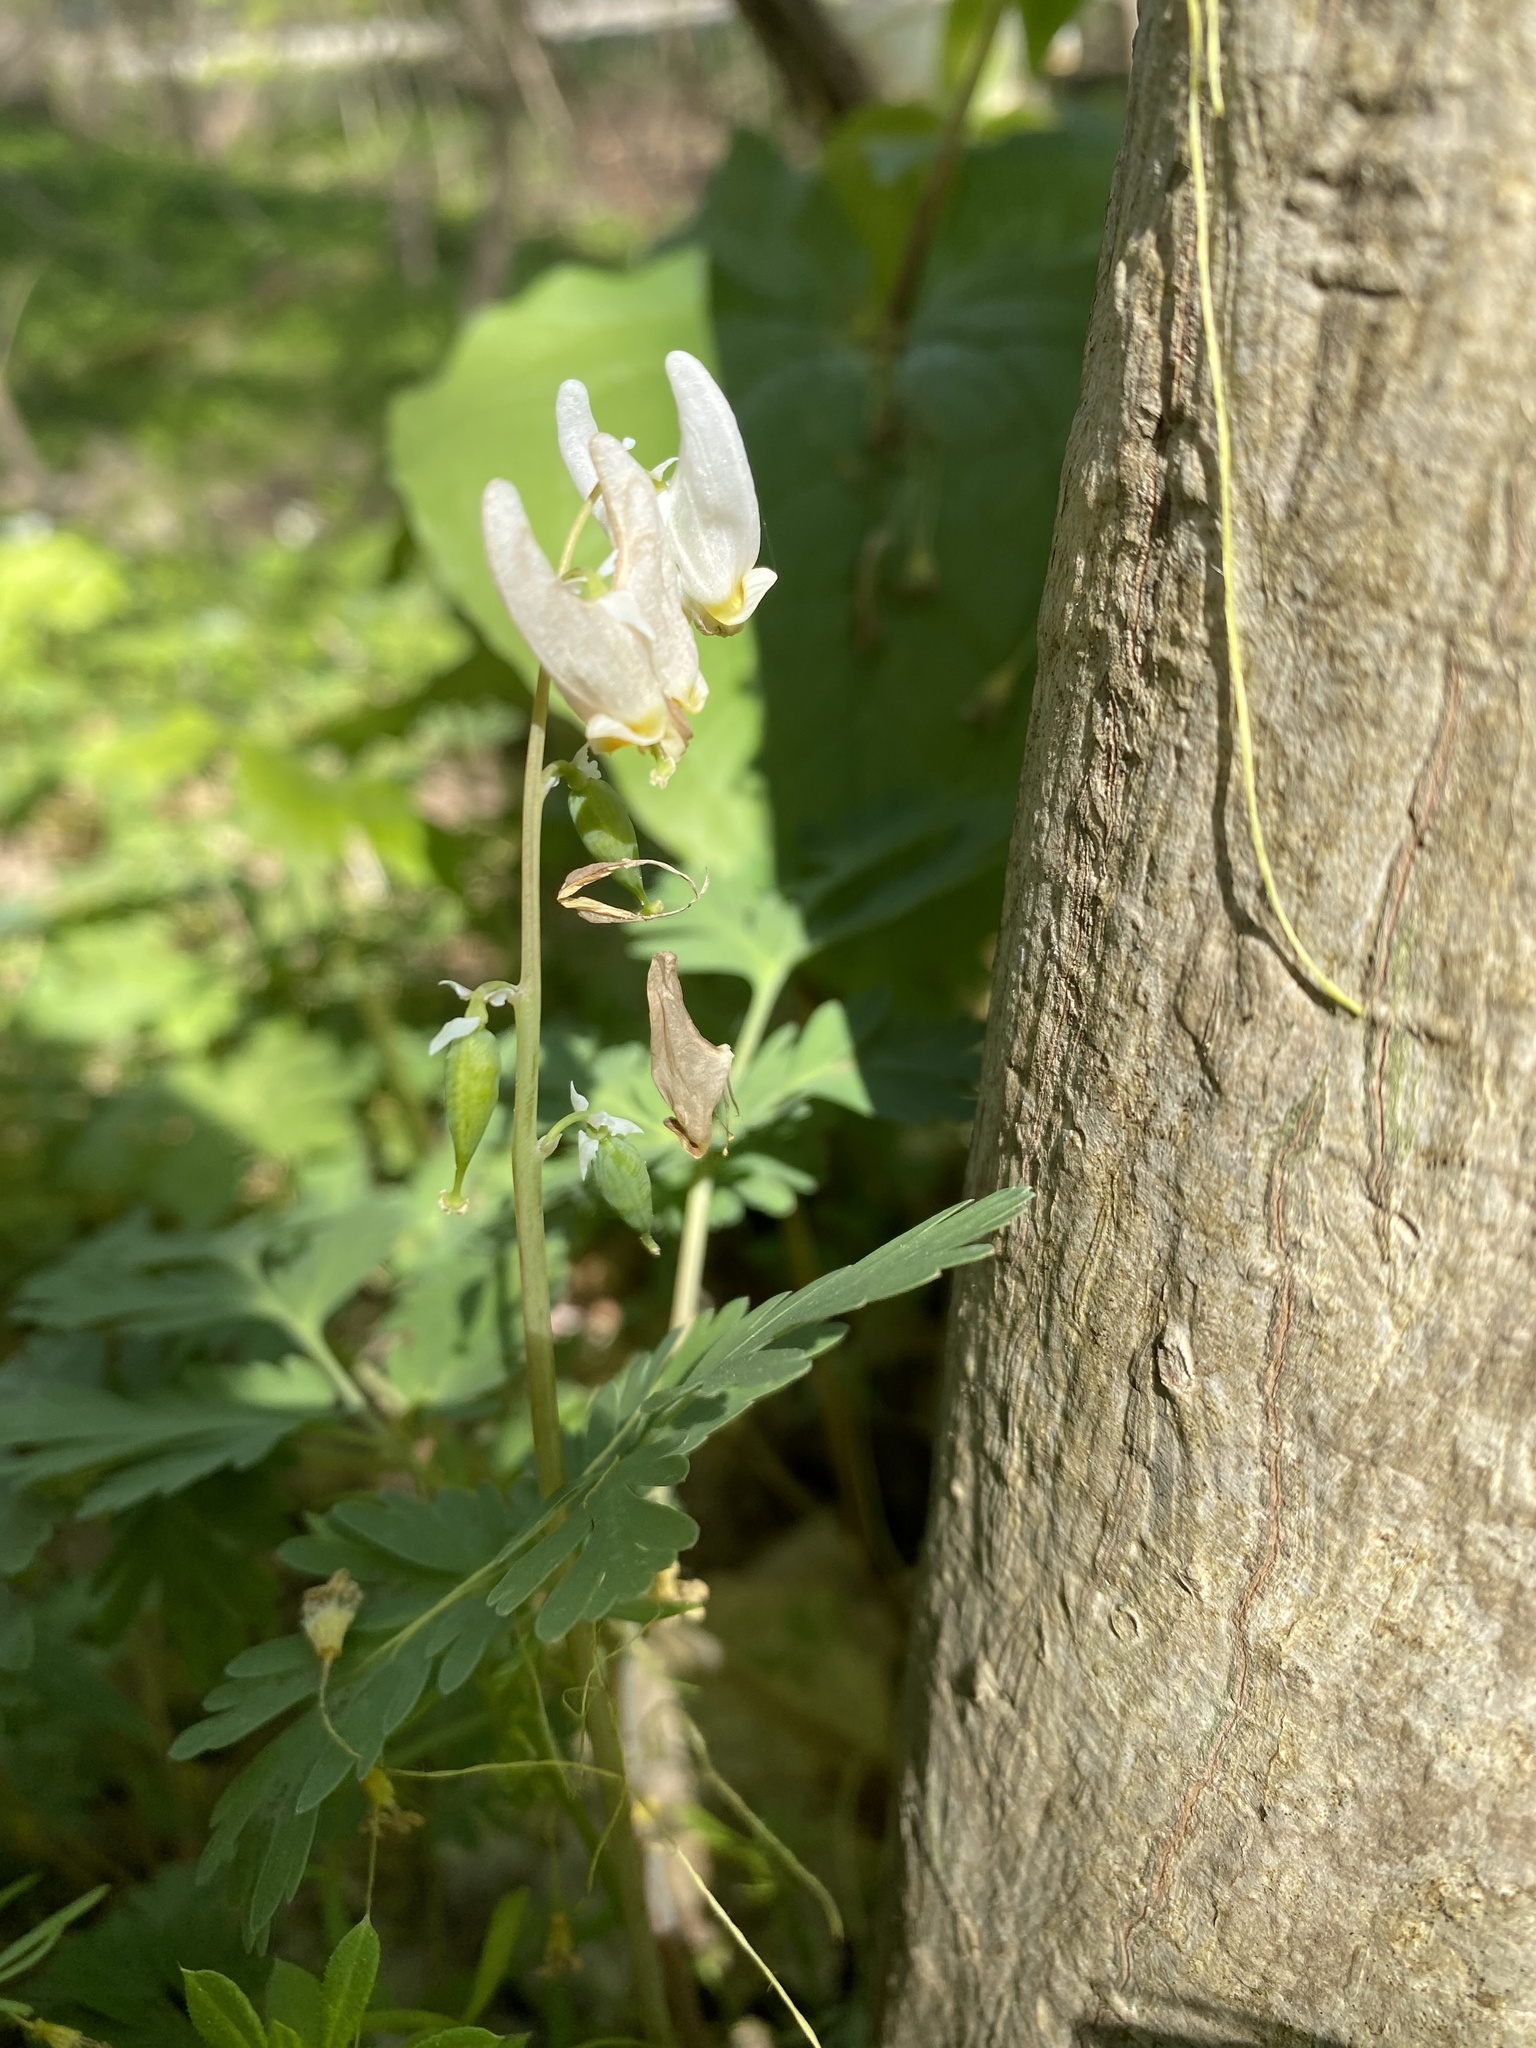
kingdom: Plantae
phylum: Tracheophyta
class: Magnoliopsida
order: Ranunculales
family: Papaveraceae
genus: Dicentra
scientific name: Dicentra cucullaria
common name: Dutchman's breeches
